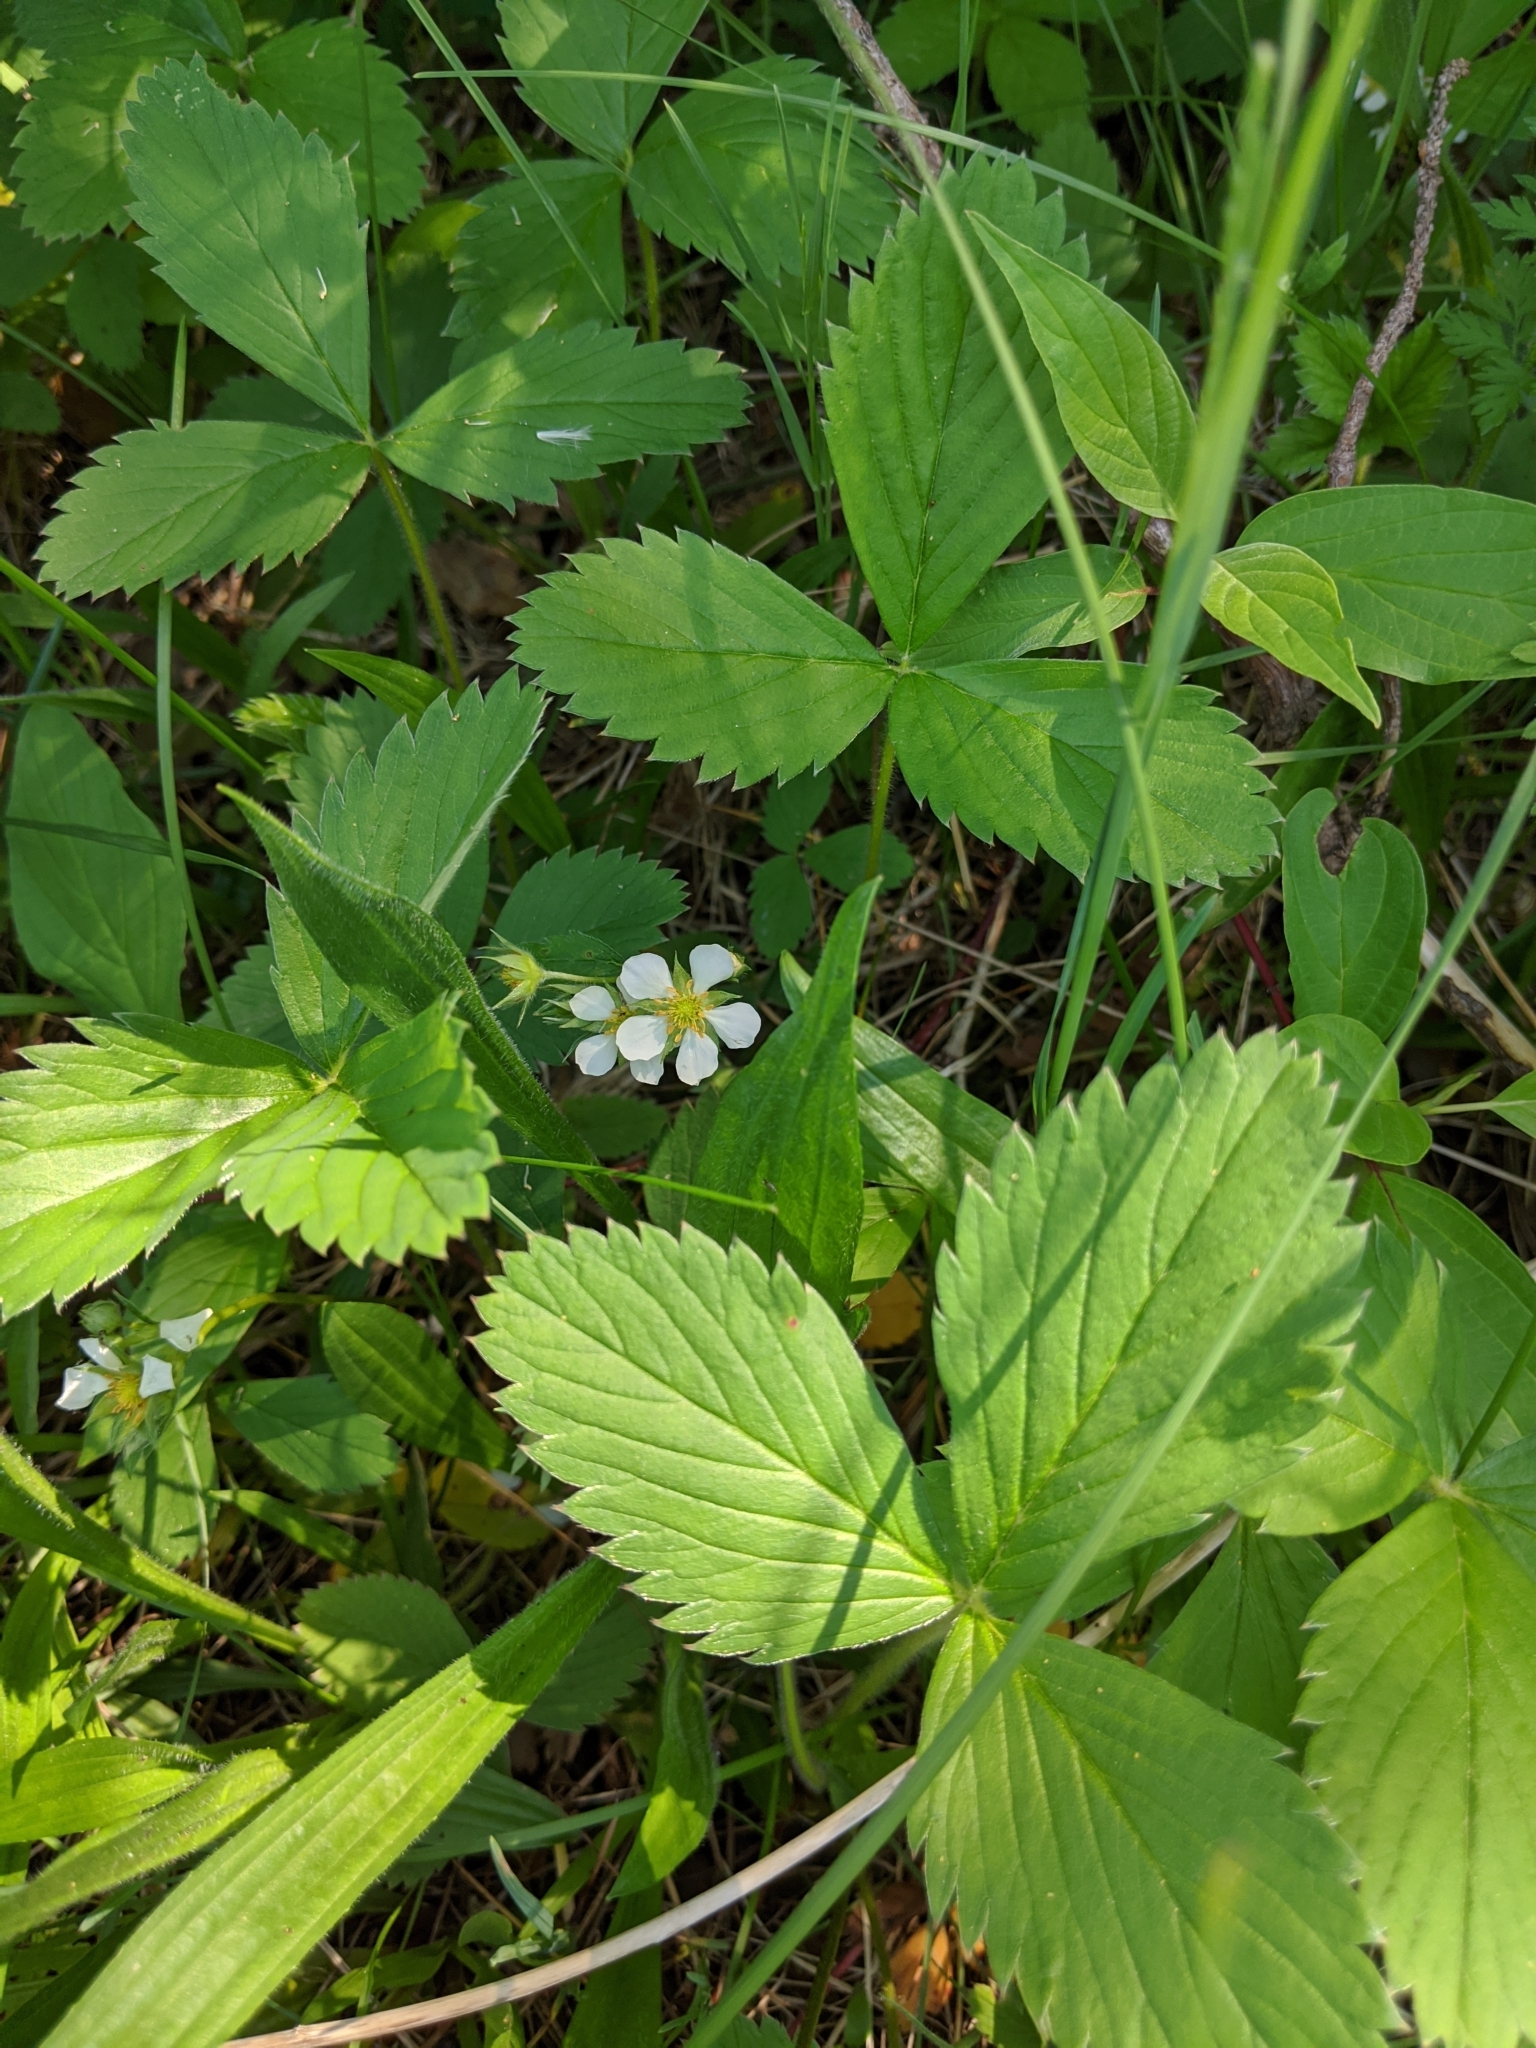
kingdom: Plantae
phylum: Tracheophyta
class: Magnoliopsida
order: Rosales
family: Rosaceae
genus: Fragaria
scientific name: Fragaria virginiana
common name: Thickleaved wild strawberry
